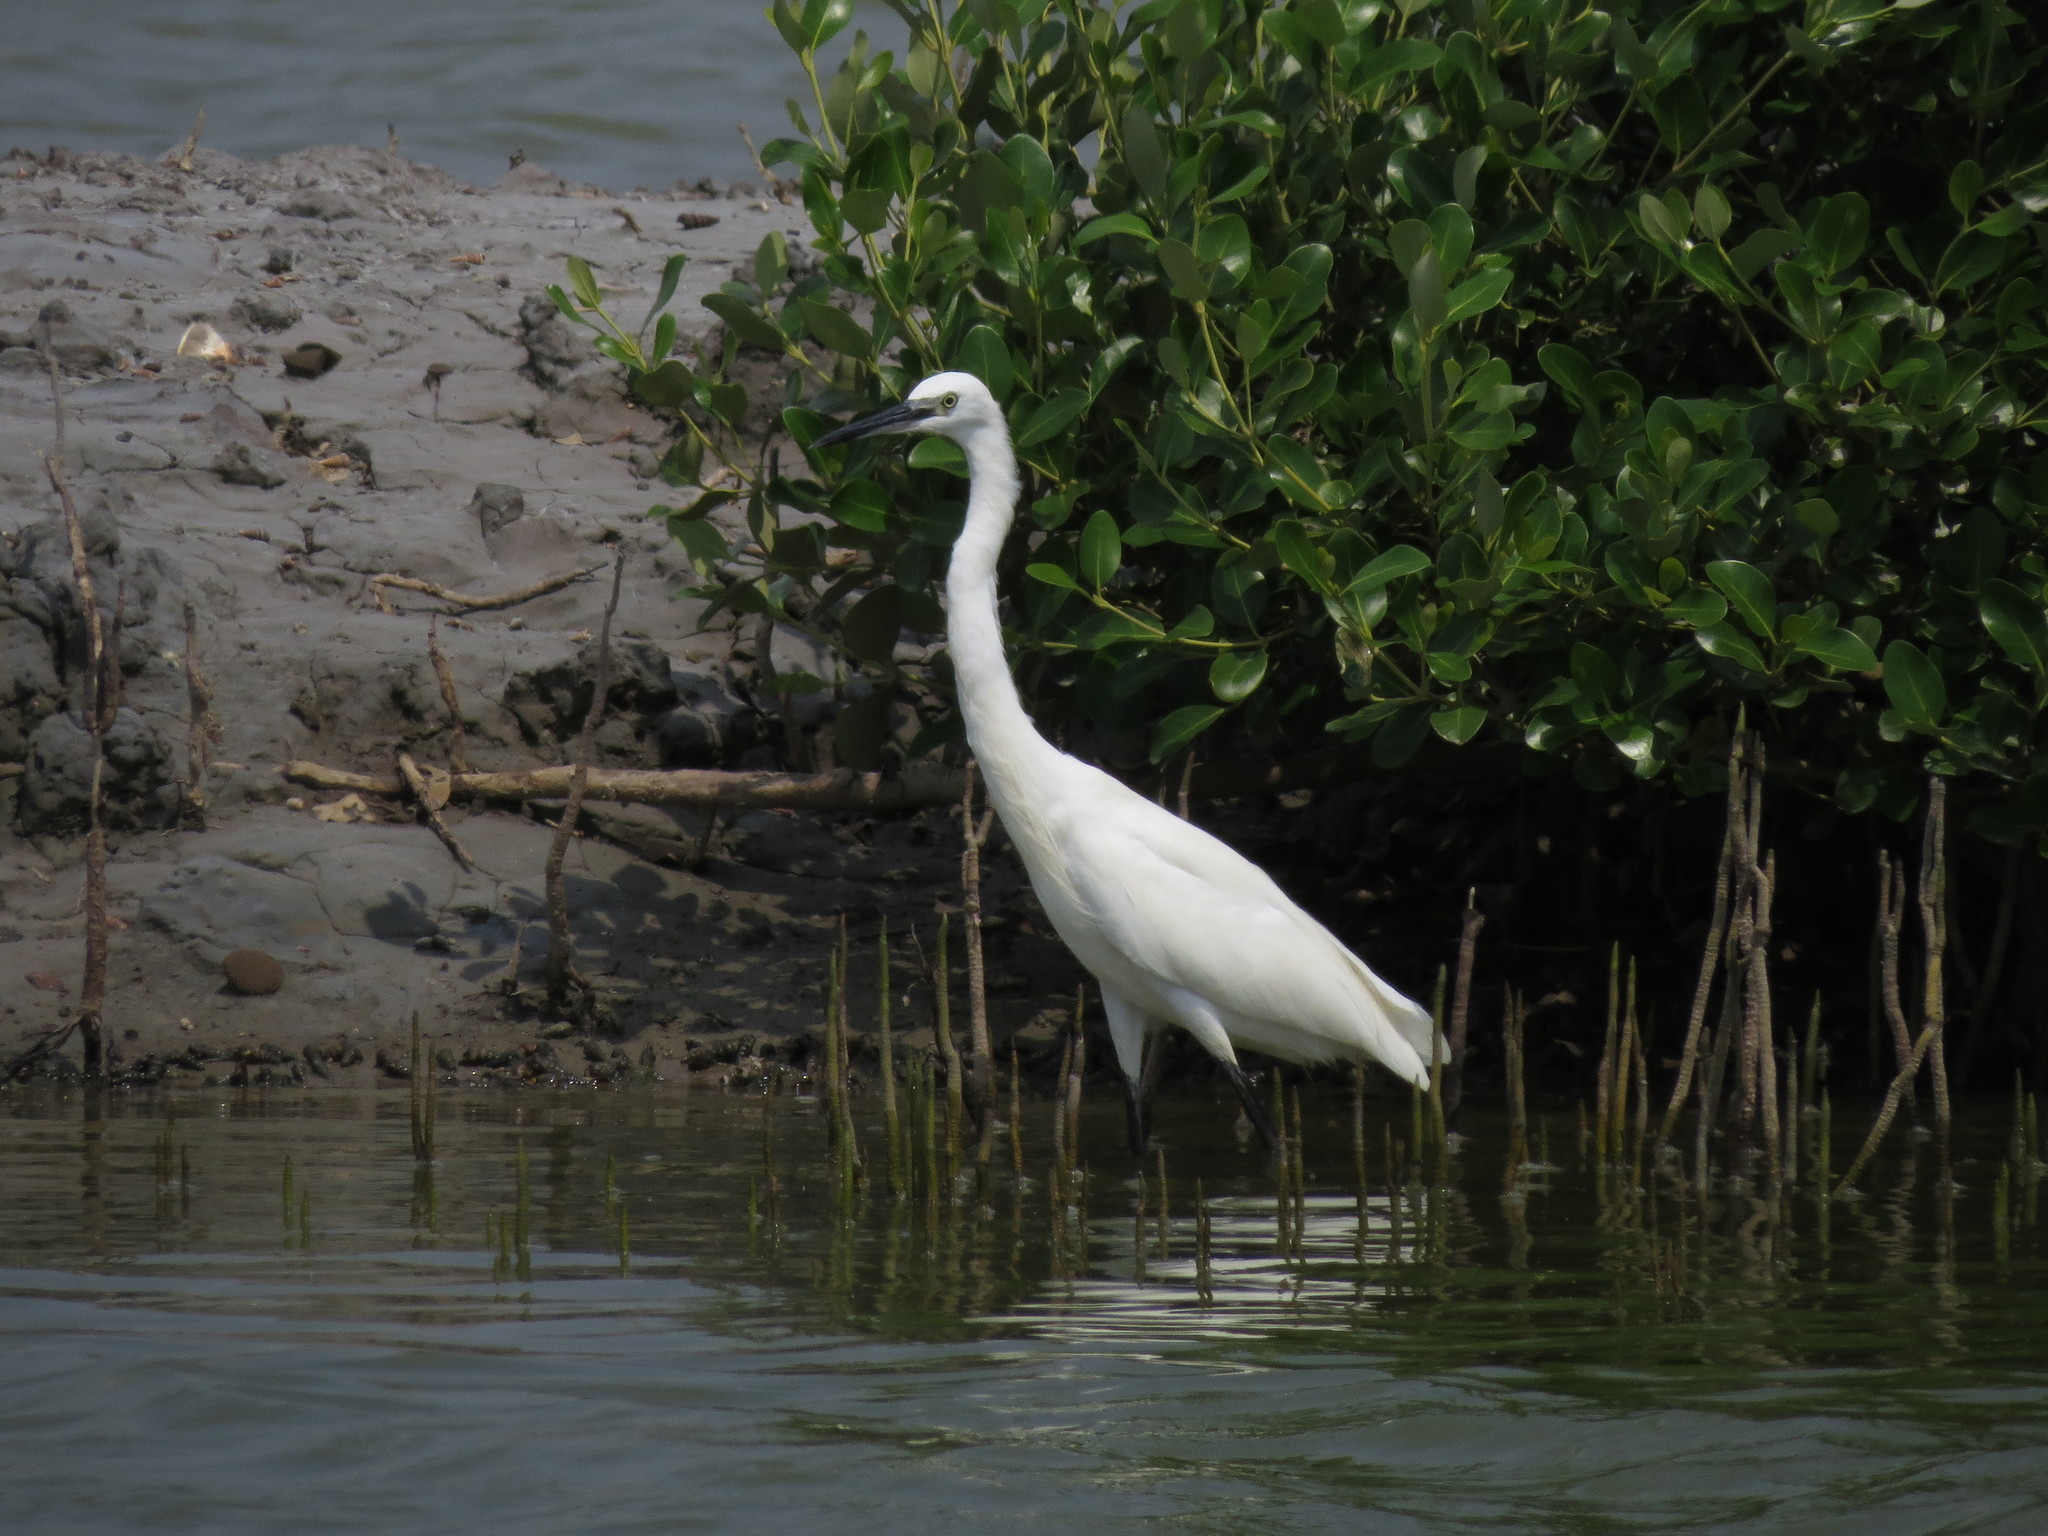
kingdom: Animalia
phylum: Chordata
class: Aves
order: Pelecaniformes
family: Ardeidae
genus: Egretta
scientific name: Egretta garzetta
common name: Little egret
